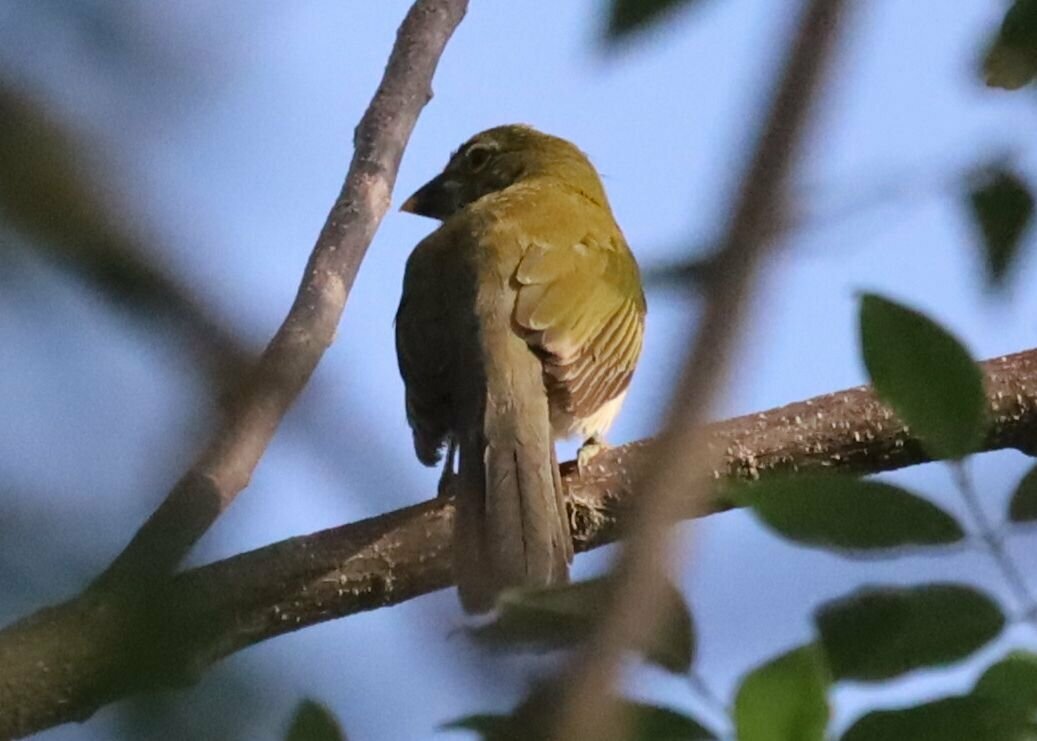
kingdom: Animalia
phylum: Chordata
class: Aves
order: Passeriformes
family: Thraupidae
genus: Saltator
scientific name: Saltator striatipectus
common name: Streaked saltator
